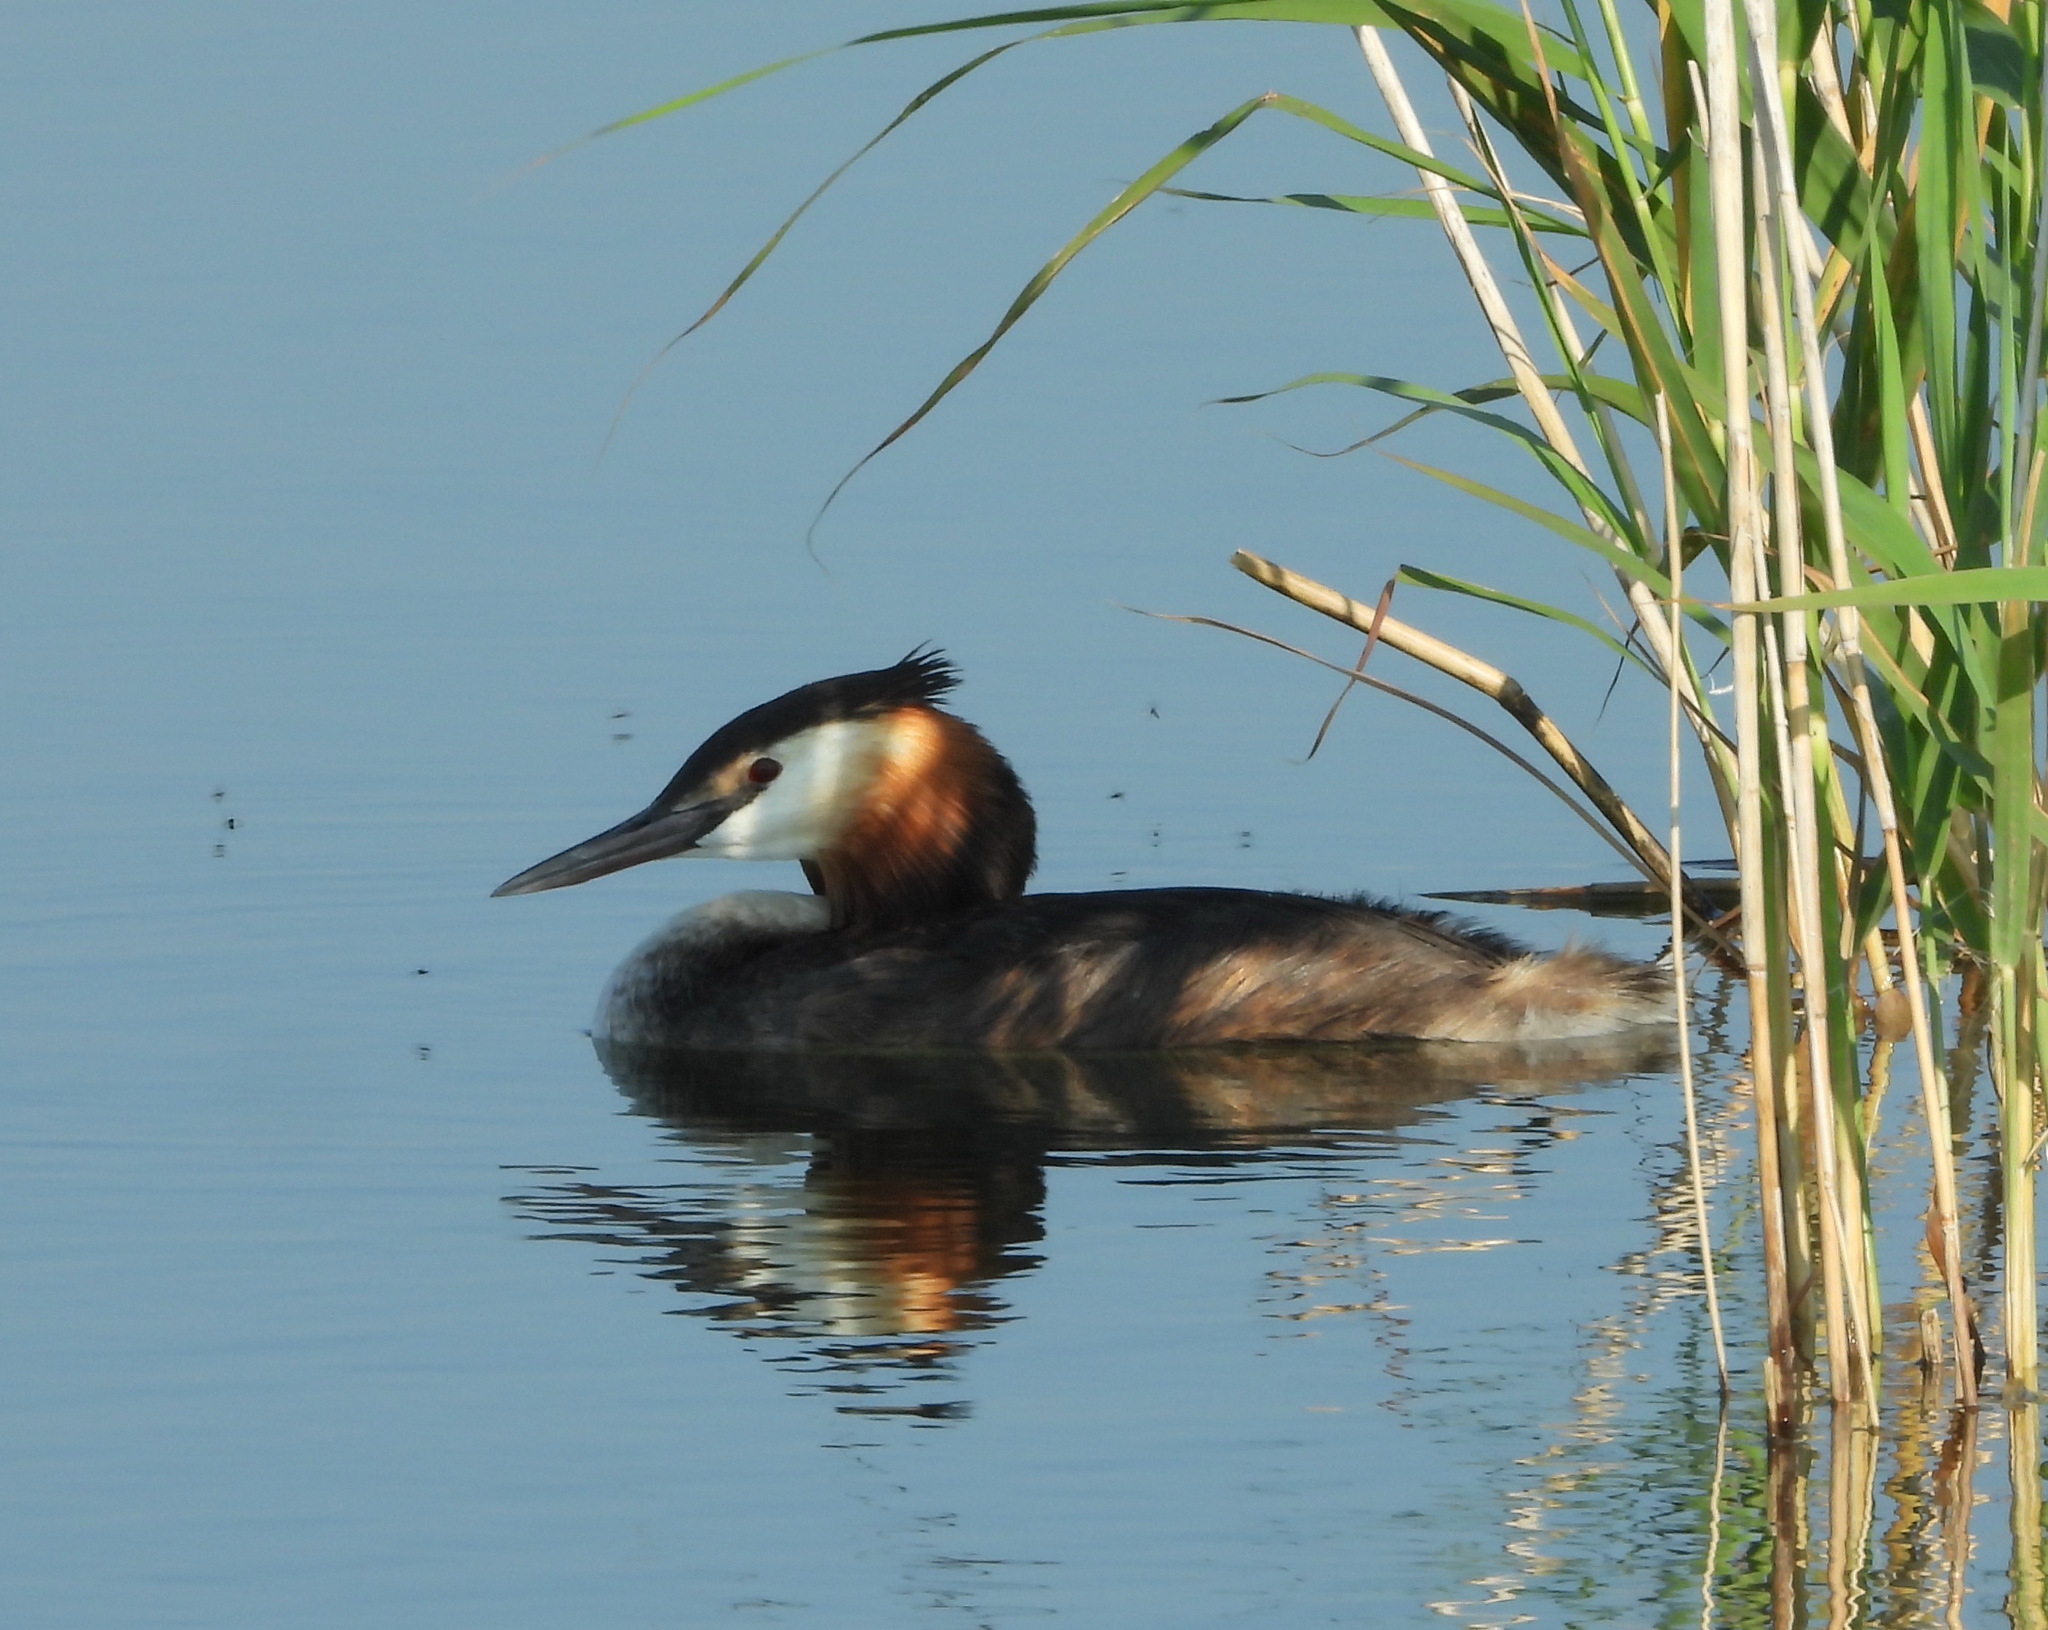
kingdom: Animalia
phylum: Chordata
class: Aves
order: Podicipediformes
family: Podicipedidae
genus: Podiceps
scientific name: Podiceps cristatus
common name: Great crested grebe
